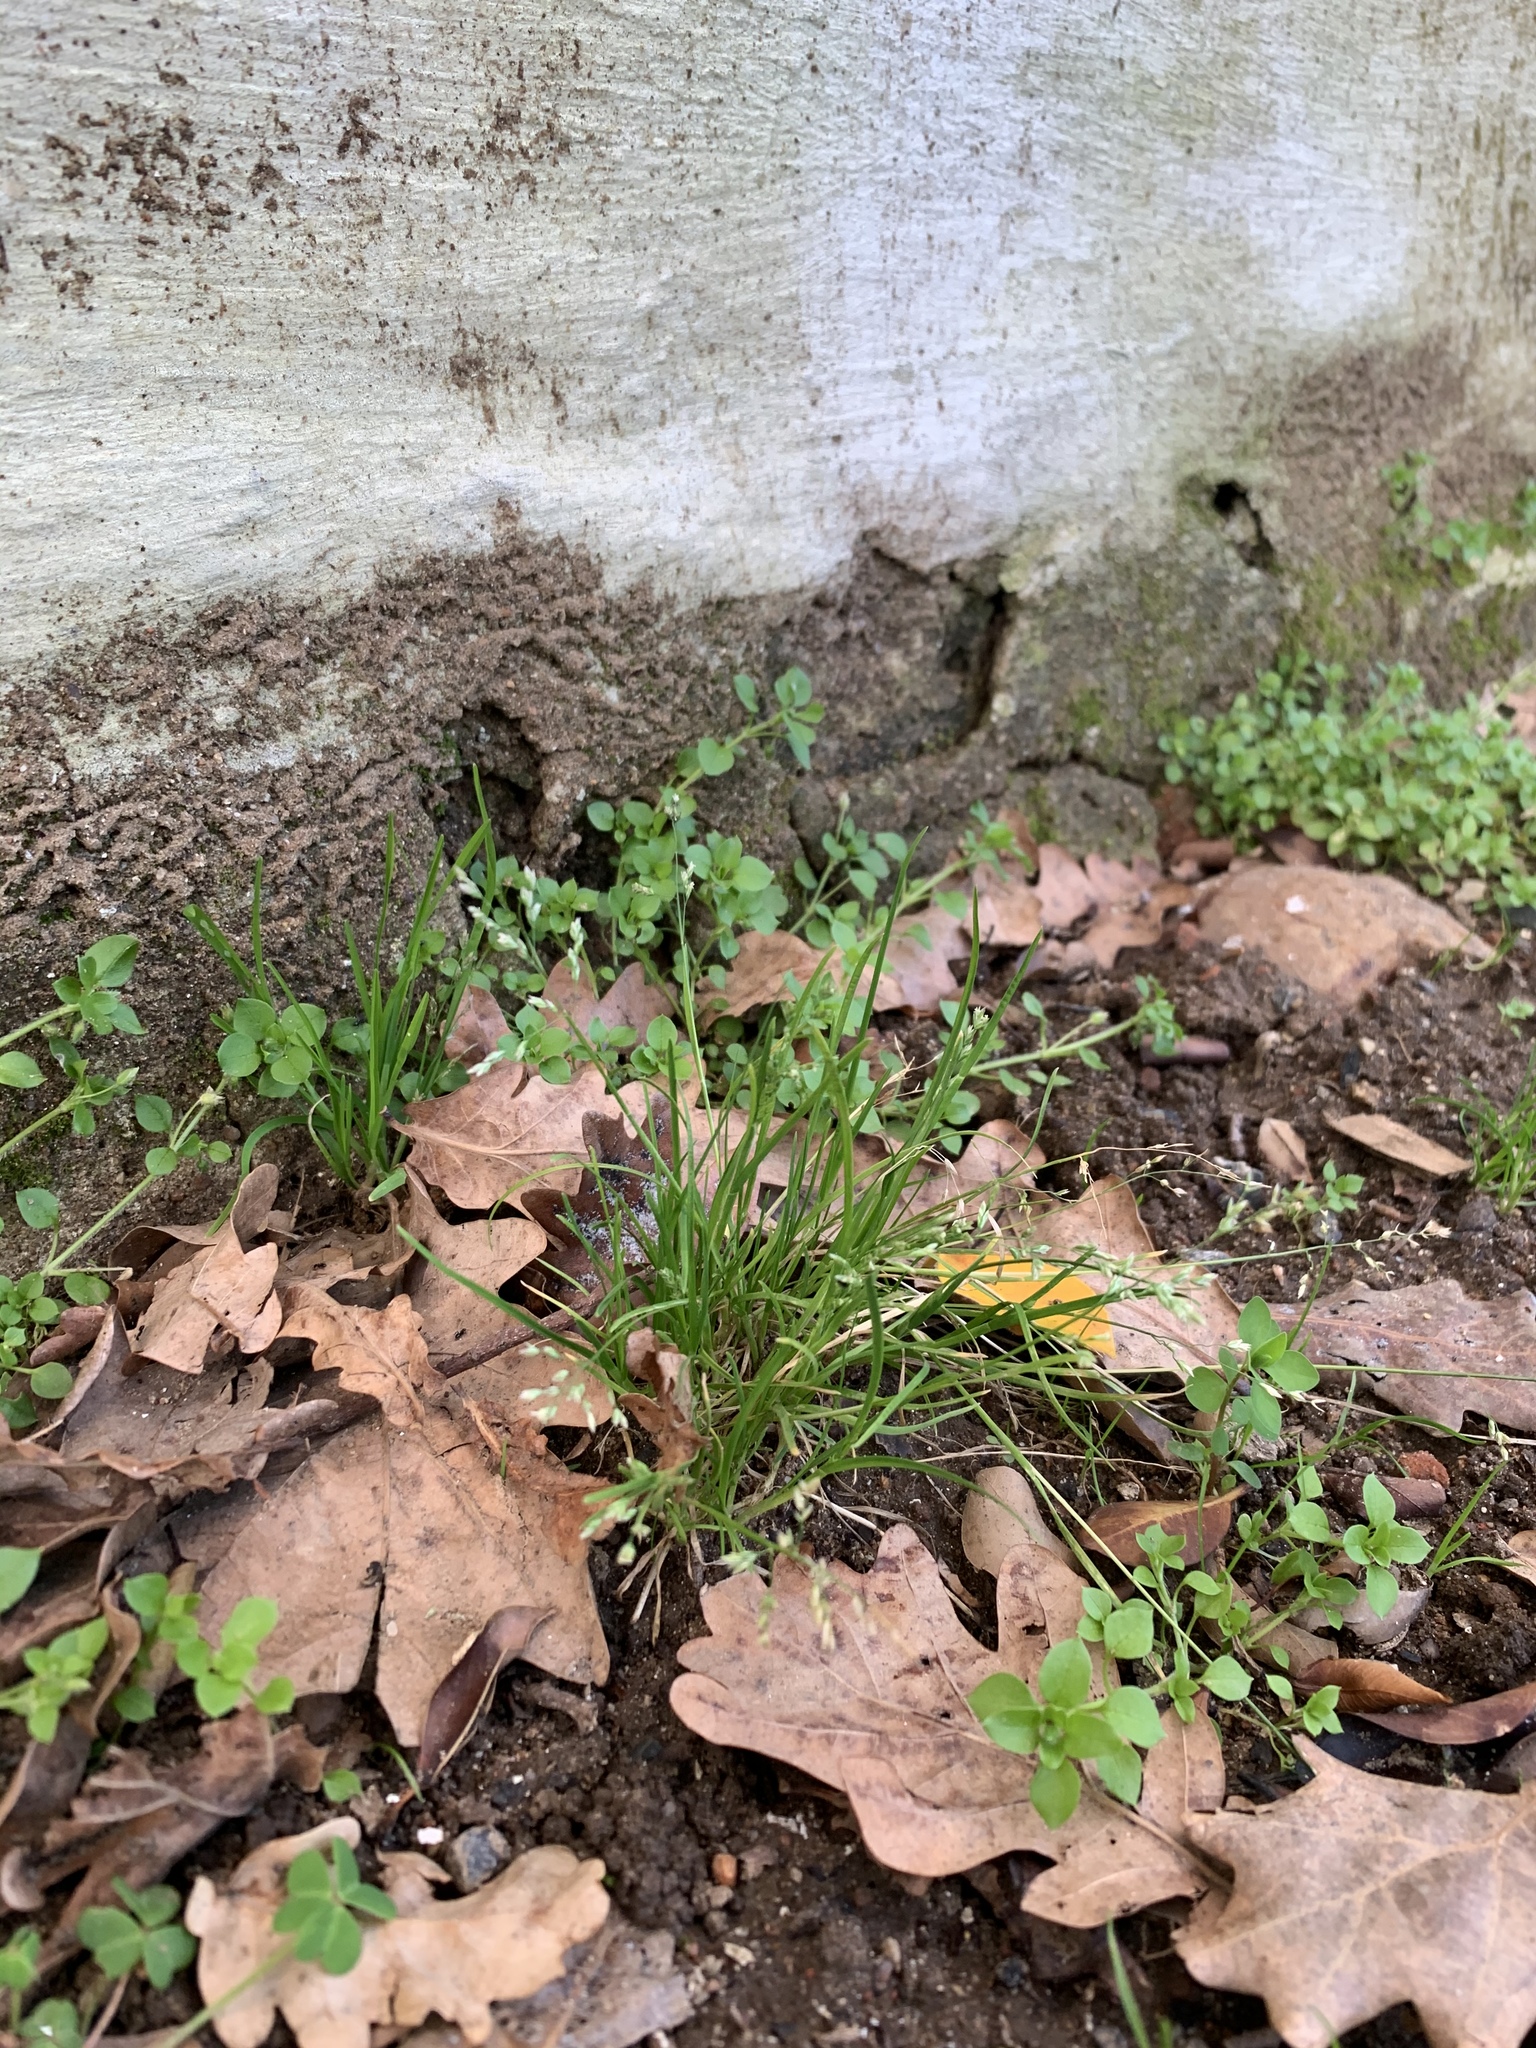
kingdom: Plantae
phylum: Tracheophyta
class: Liliopsida
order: Poales
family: Poaceae
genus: Poa
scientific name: Poa annua
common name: Annual bluegrass
